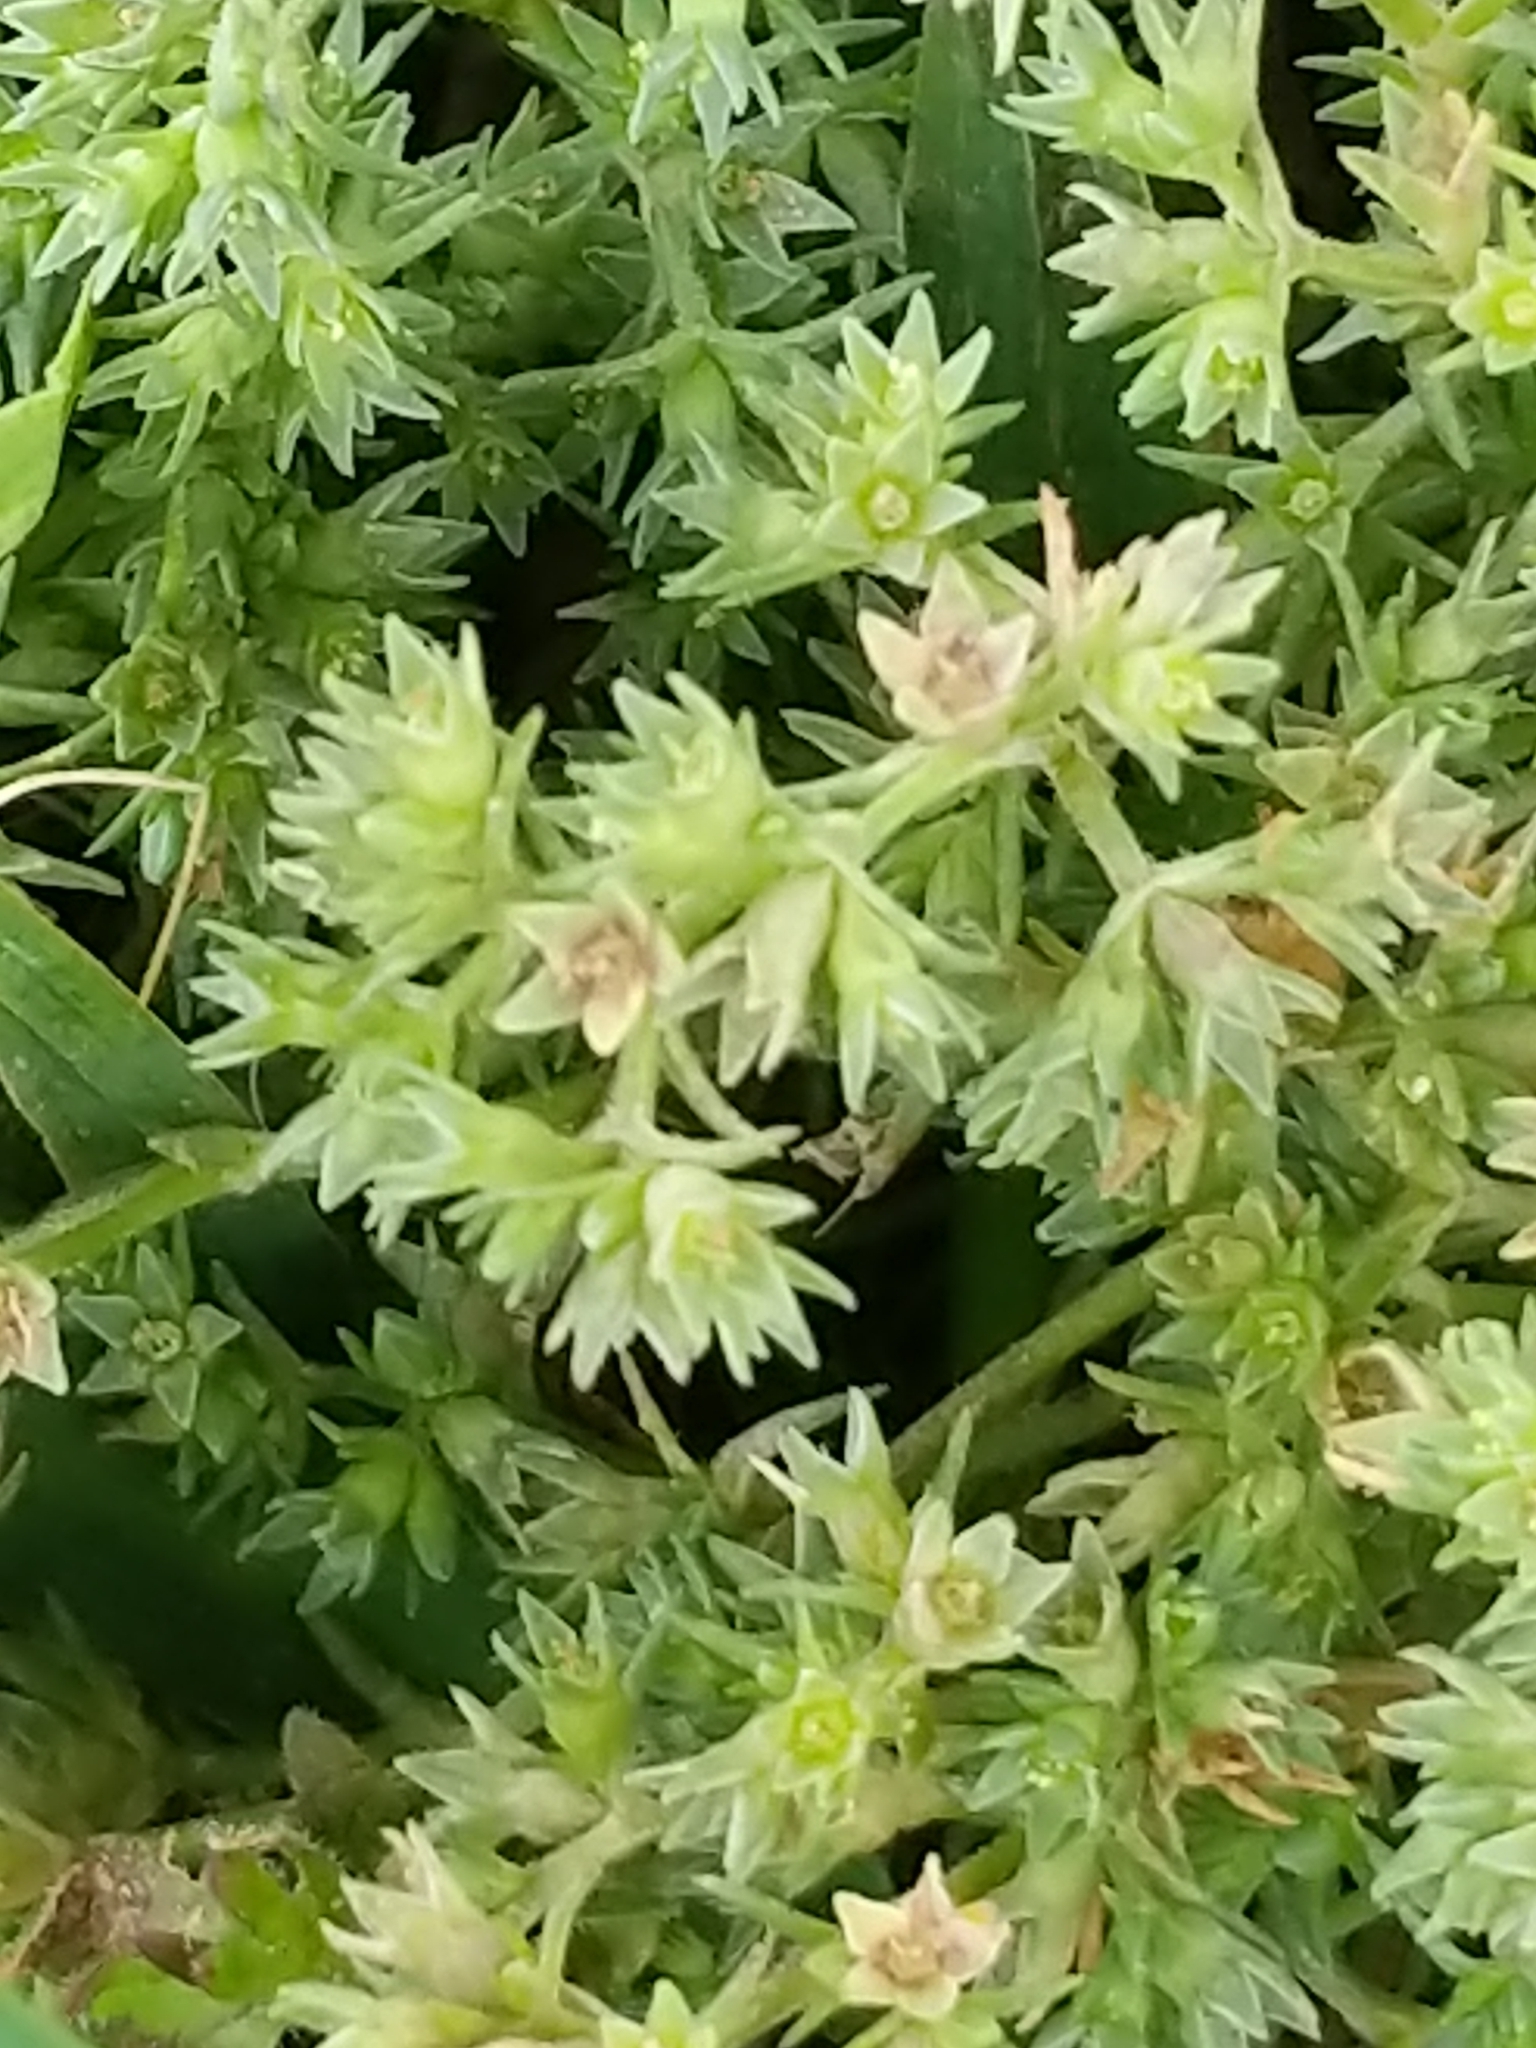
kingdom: Plantae
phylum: Tracheophyta
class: Magnoliopsida
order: Caryophyllales
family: Caryophyllaceae
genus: Scleranthus
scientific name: Scleranthus annuus
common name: Annual knawel
